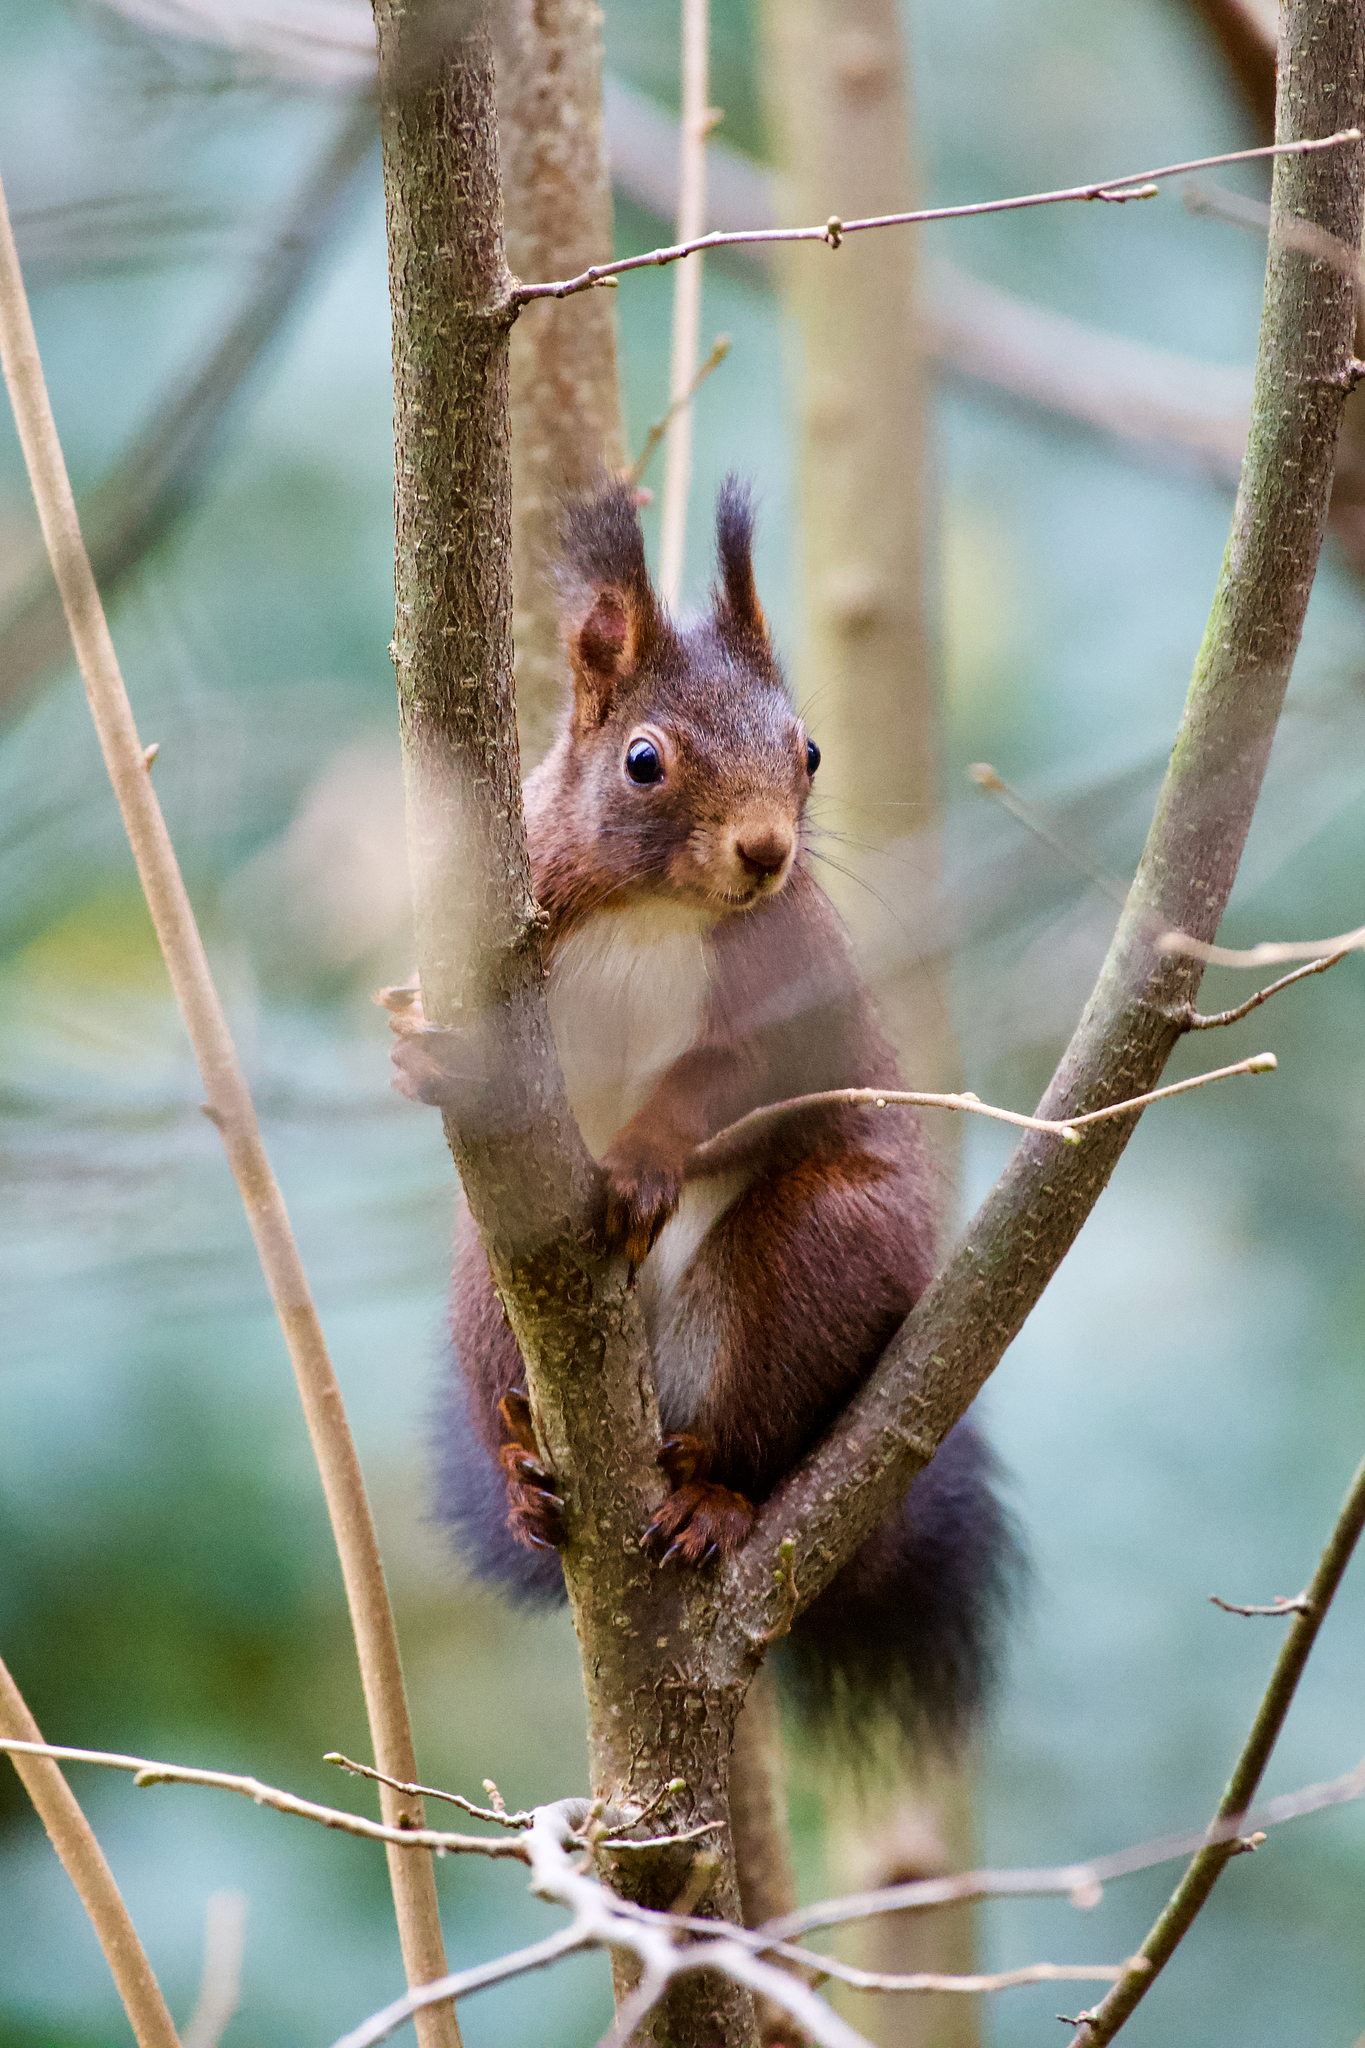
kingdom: Animalia
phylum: Chordata
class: Mammalia
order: Rodentia
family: Sciuridae
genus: Sciurus
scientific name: Sciurus vulgaris
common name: Eurasian red squirrel
